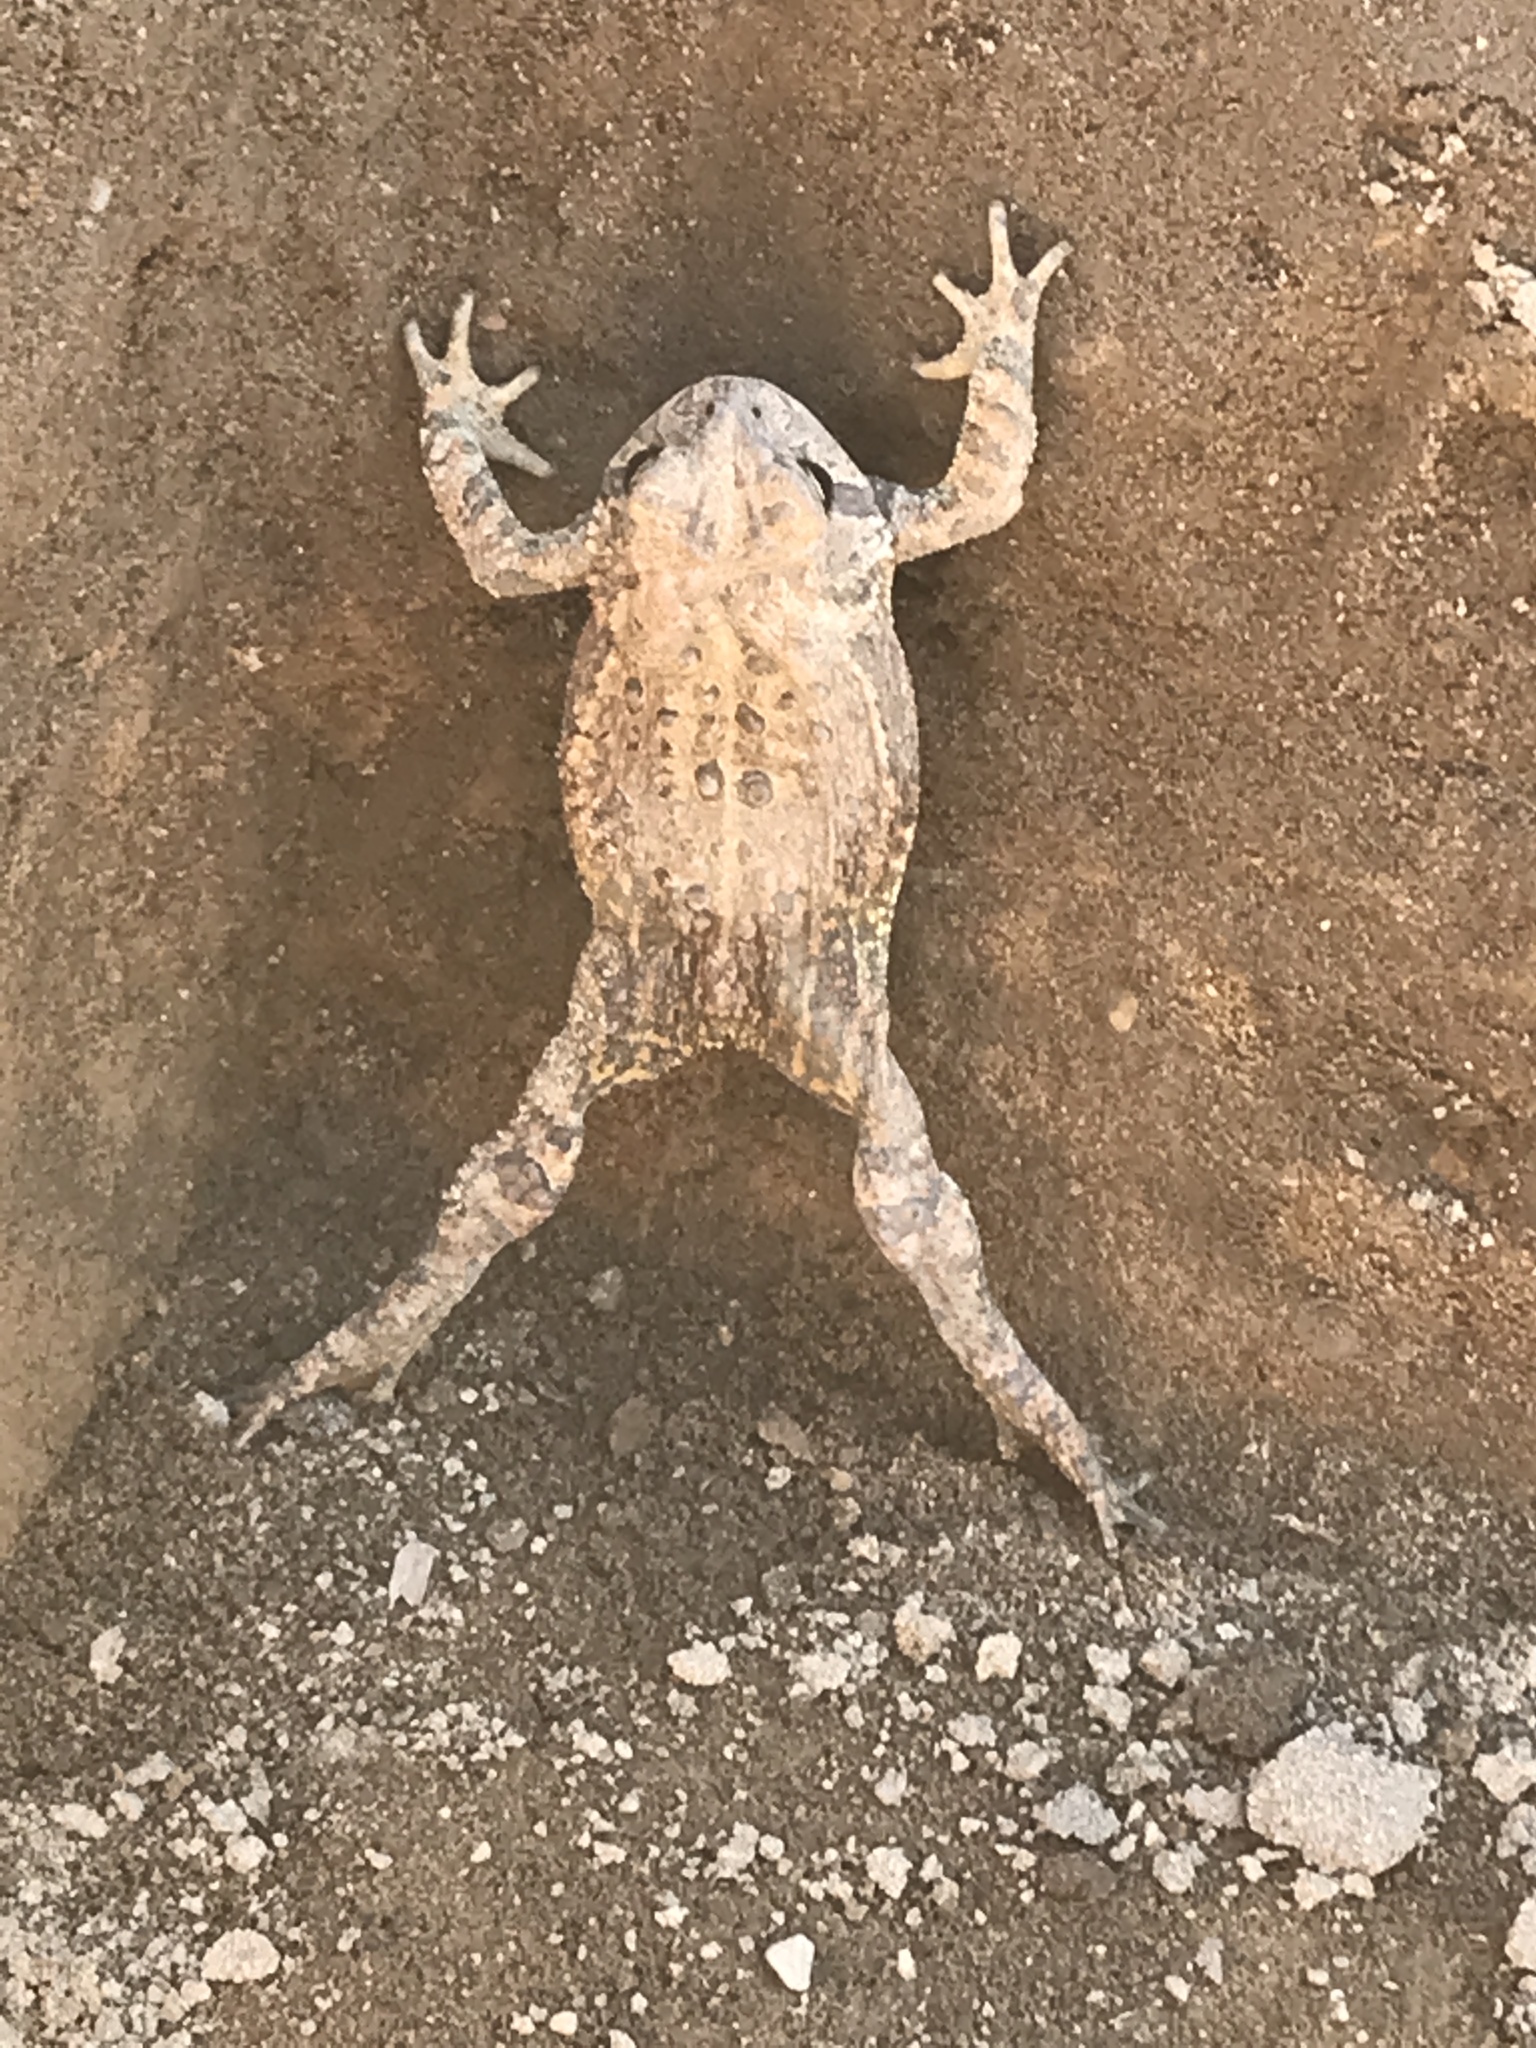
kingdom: Animalia
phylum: Chordata
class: Amphibia
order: Anura
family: Bufonidae
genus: Anaxyrus
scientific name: Anaxyrus americanus
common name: American toad
